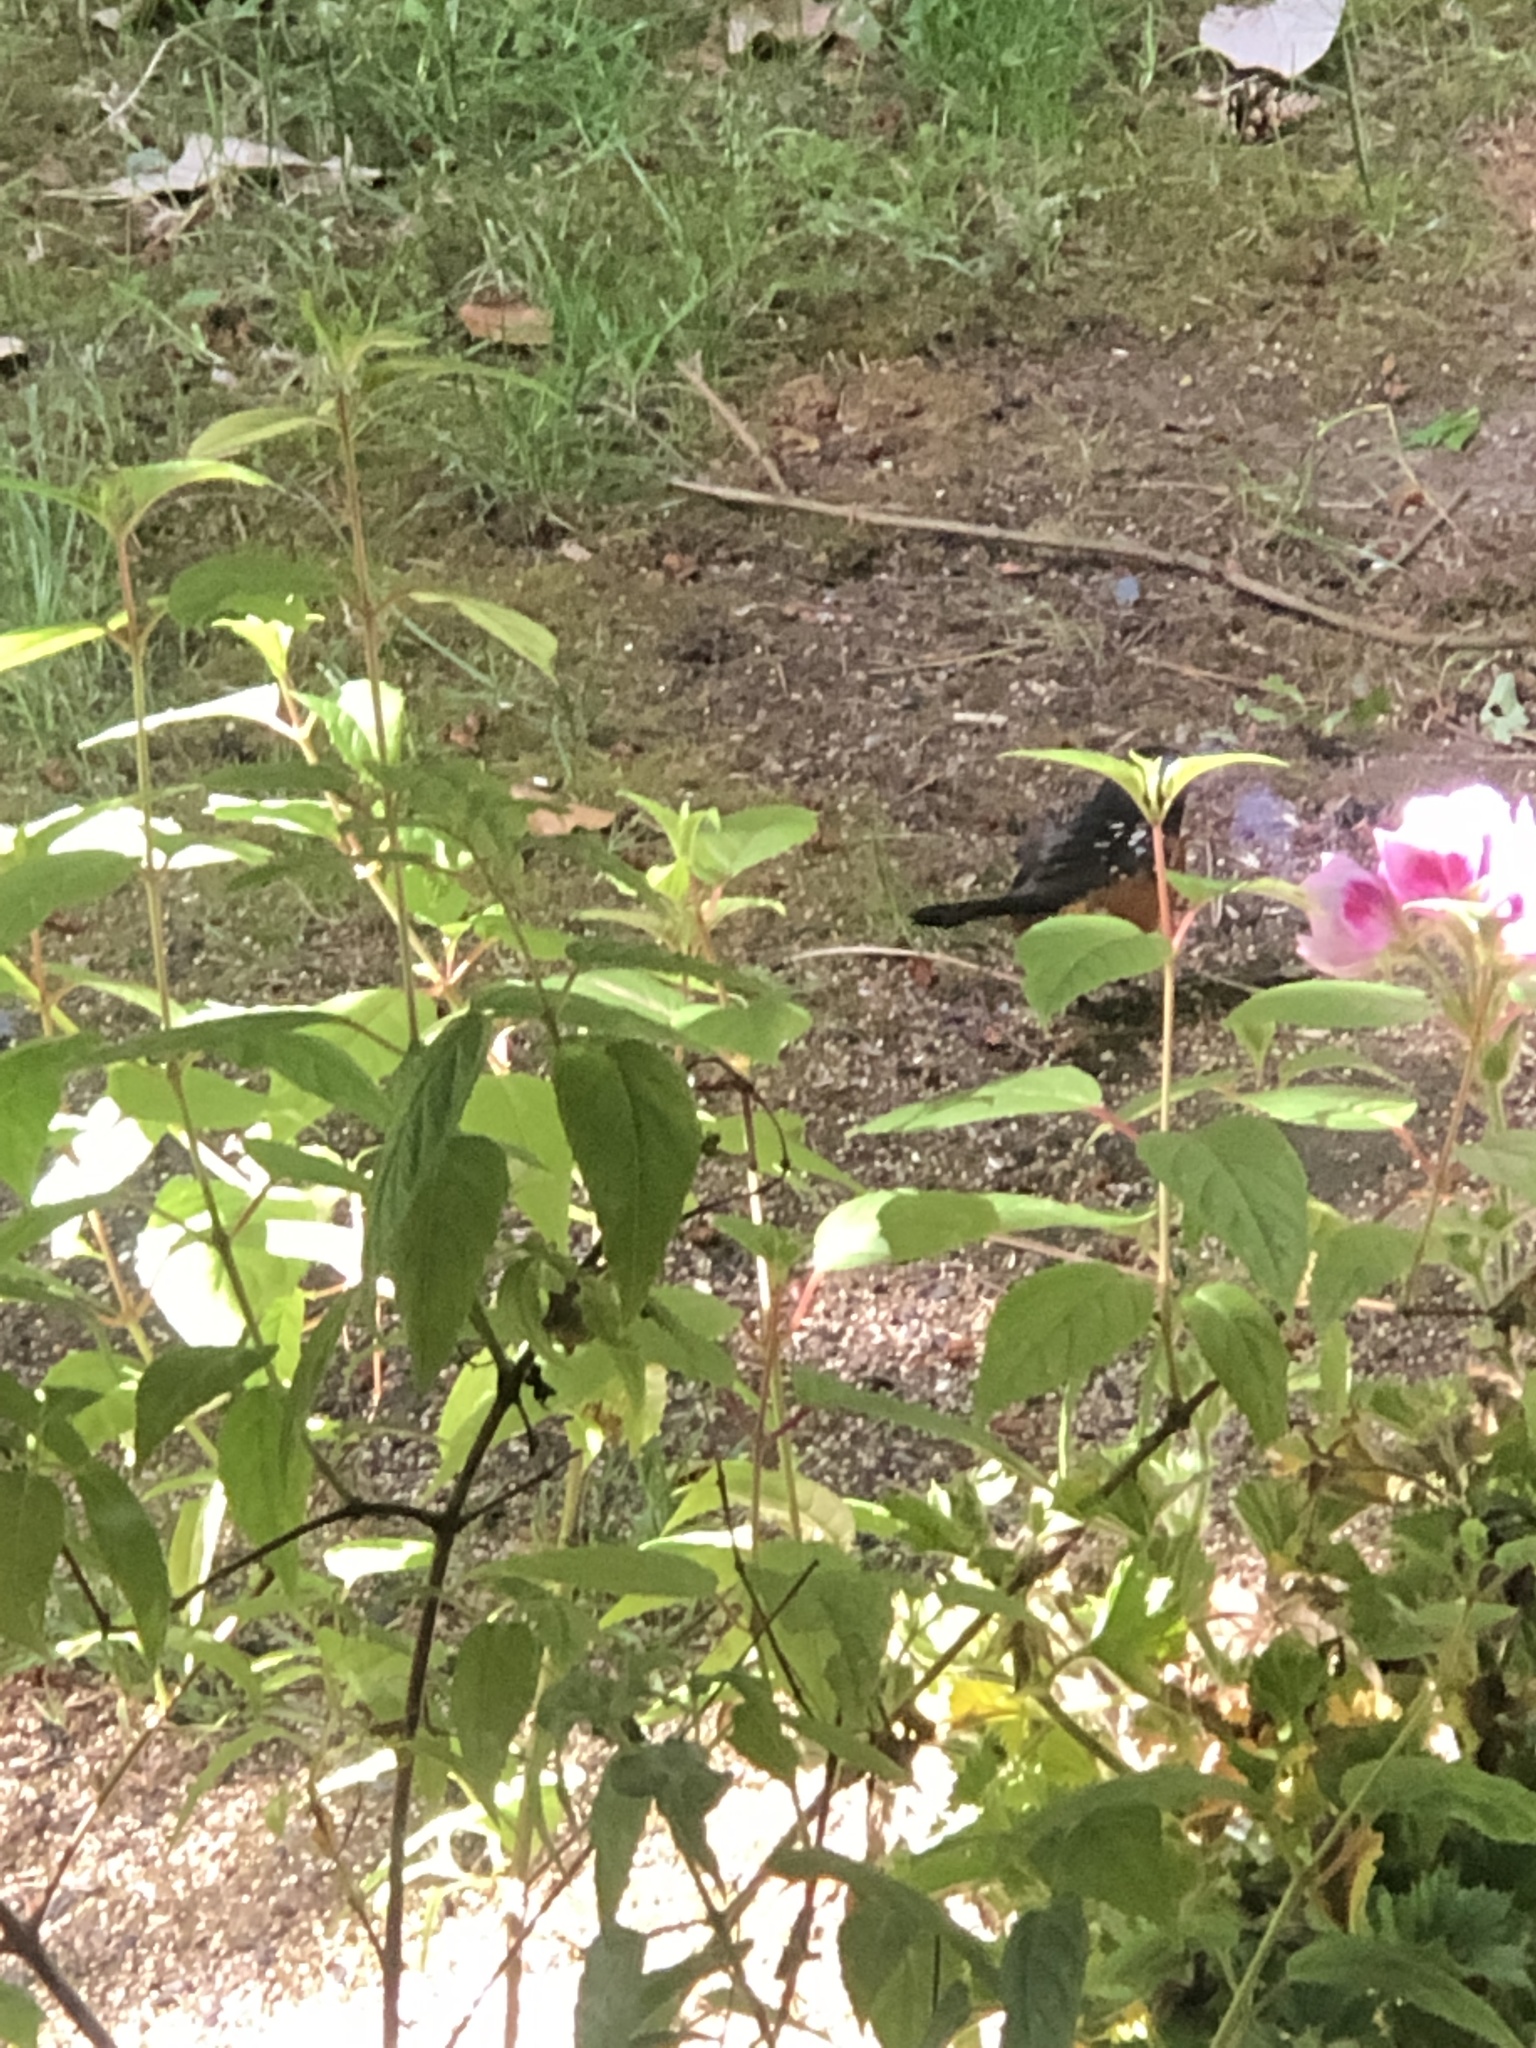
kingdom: Animalia
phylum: Chordata
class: Aves
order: Passeriformes
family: Passerellidae
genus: Pipilo
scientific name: Pipilo maculatus
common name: Spotted towhee
